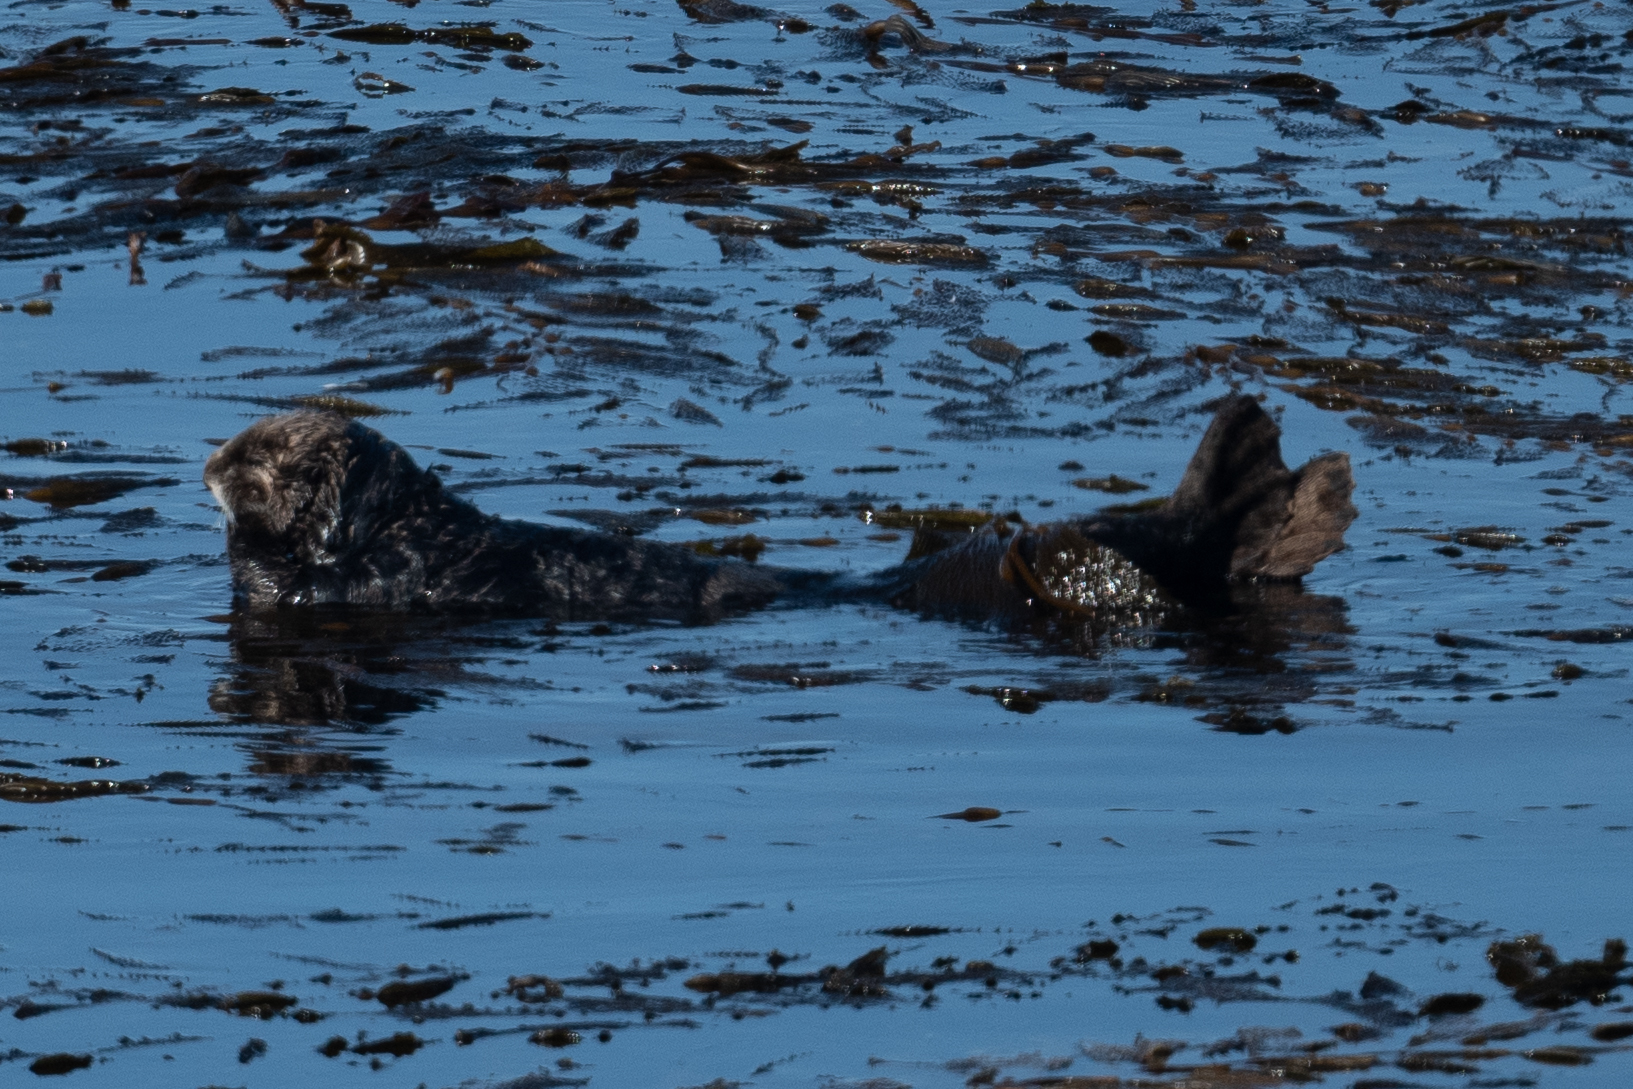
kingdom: Animalia
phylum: Chordata
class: Mammalia
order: Carnivora
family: Mustelidae
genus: Enhydra
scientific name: Enhydra lutris
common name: Sea otter
